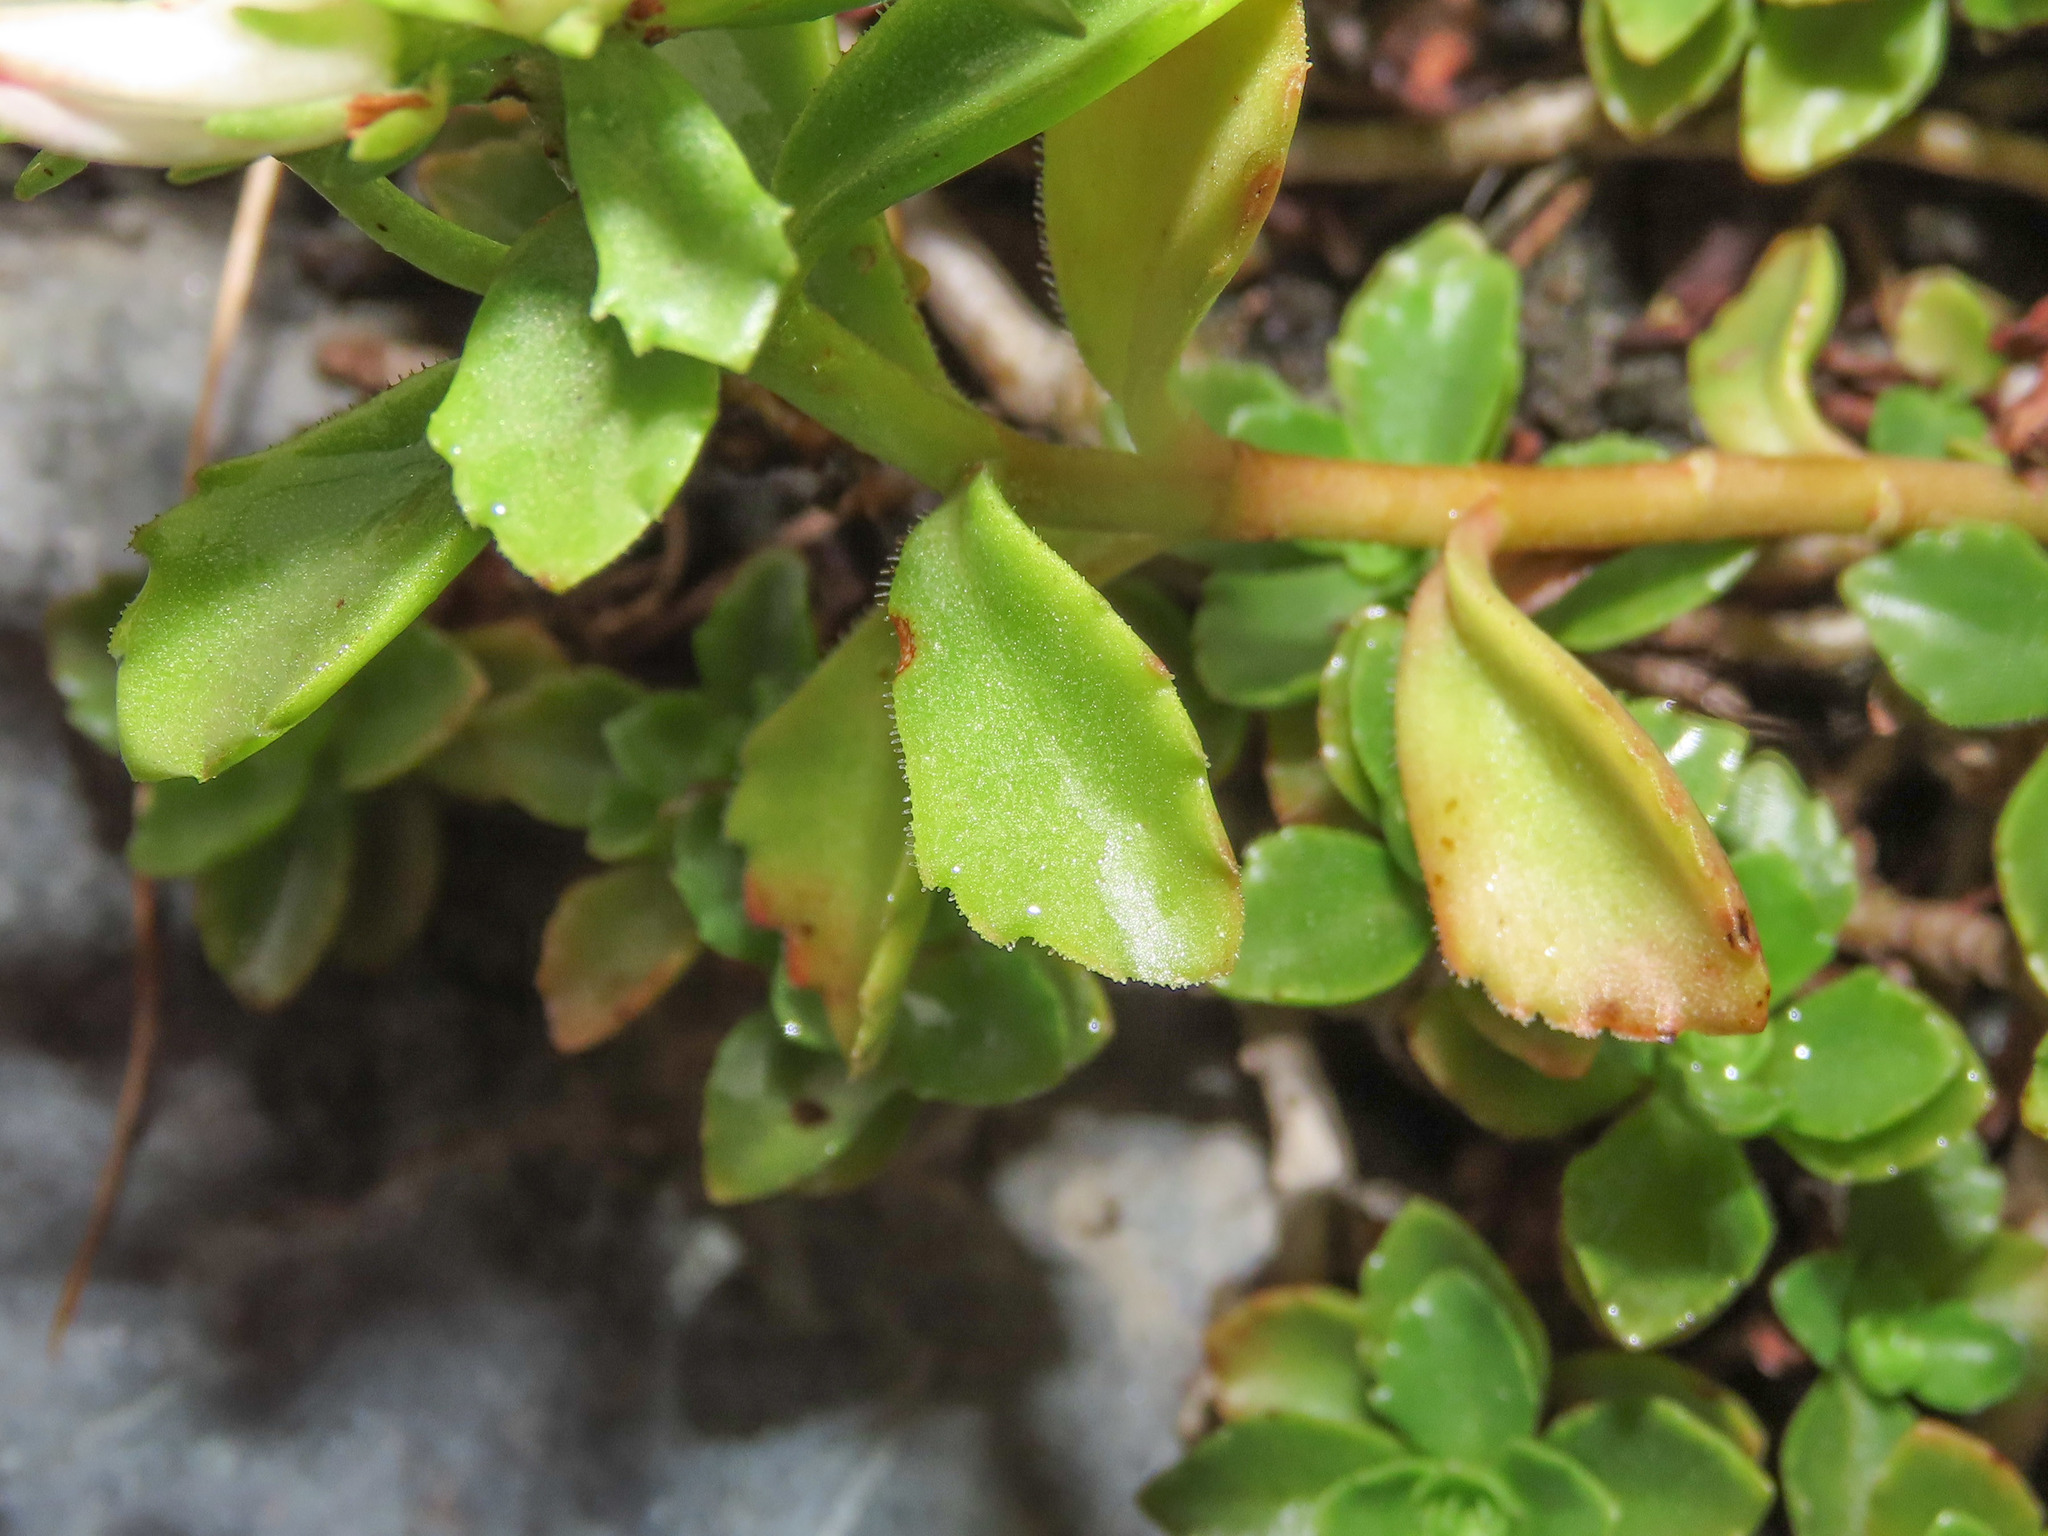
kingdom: Plantae
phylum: Tracheophyta
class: Magnoliopsida
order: Saxifragales
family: Crassulaceae
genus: Phedimus
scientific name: Phedimus spurius
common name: Caucasian stonecrop
